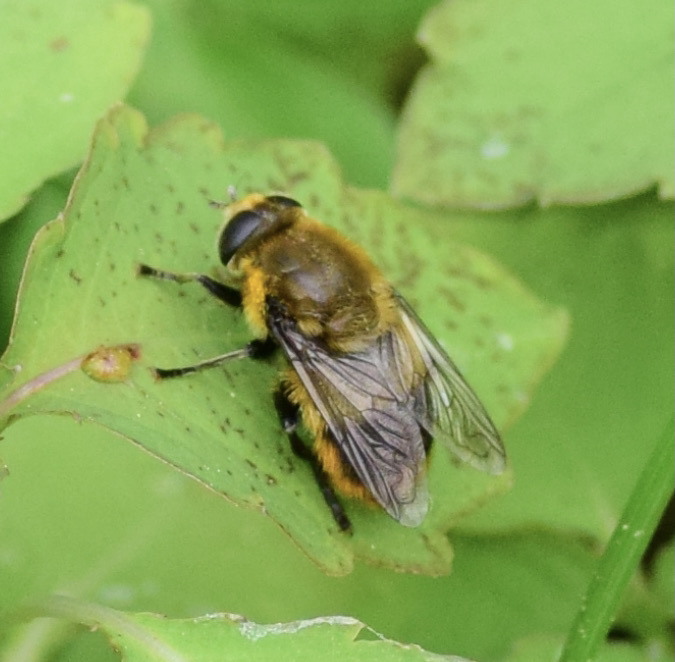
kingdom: Animalia
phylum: Arthropoda
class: Insecta
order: Diptera
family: Syrphidae
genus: Merodon
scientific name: Merodon equestris
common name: Greater bulb-fly
